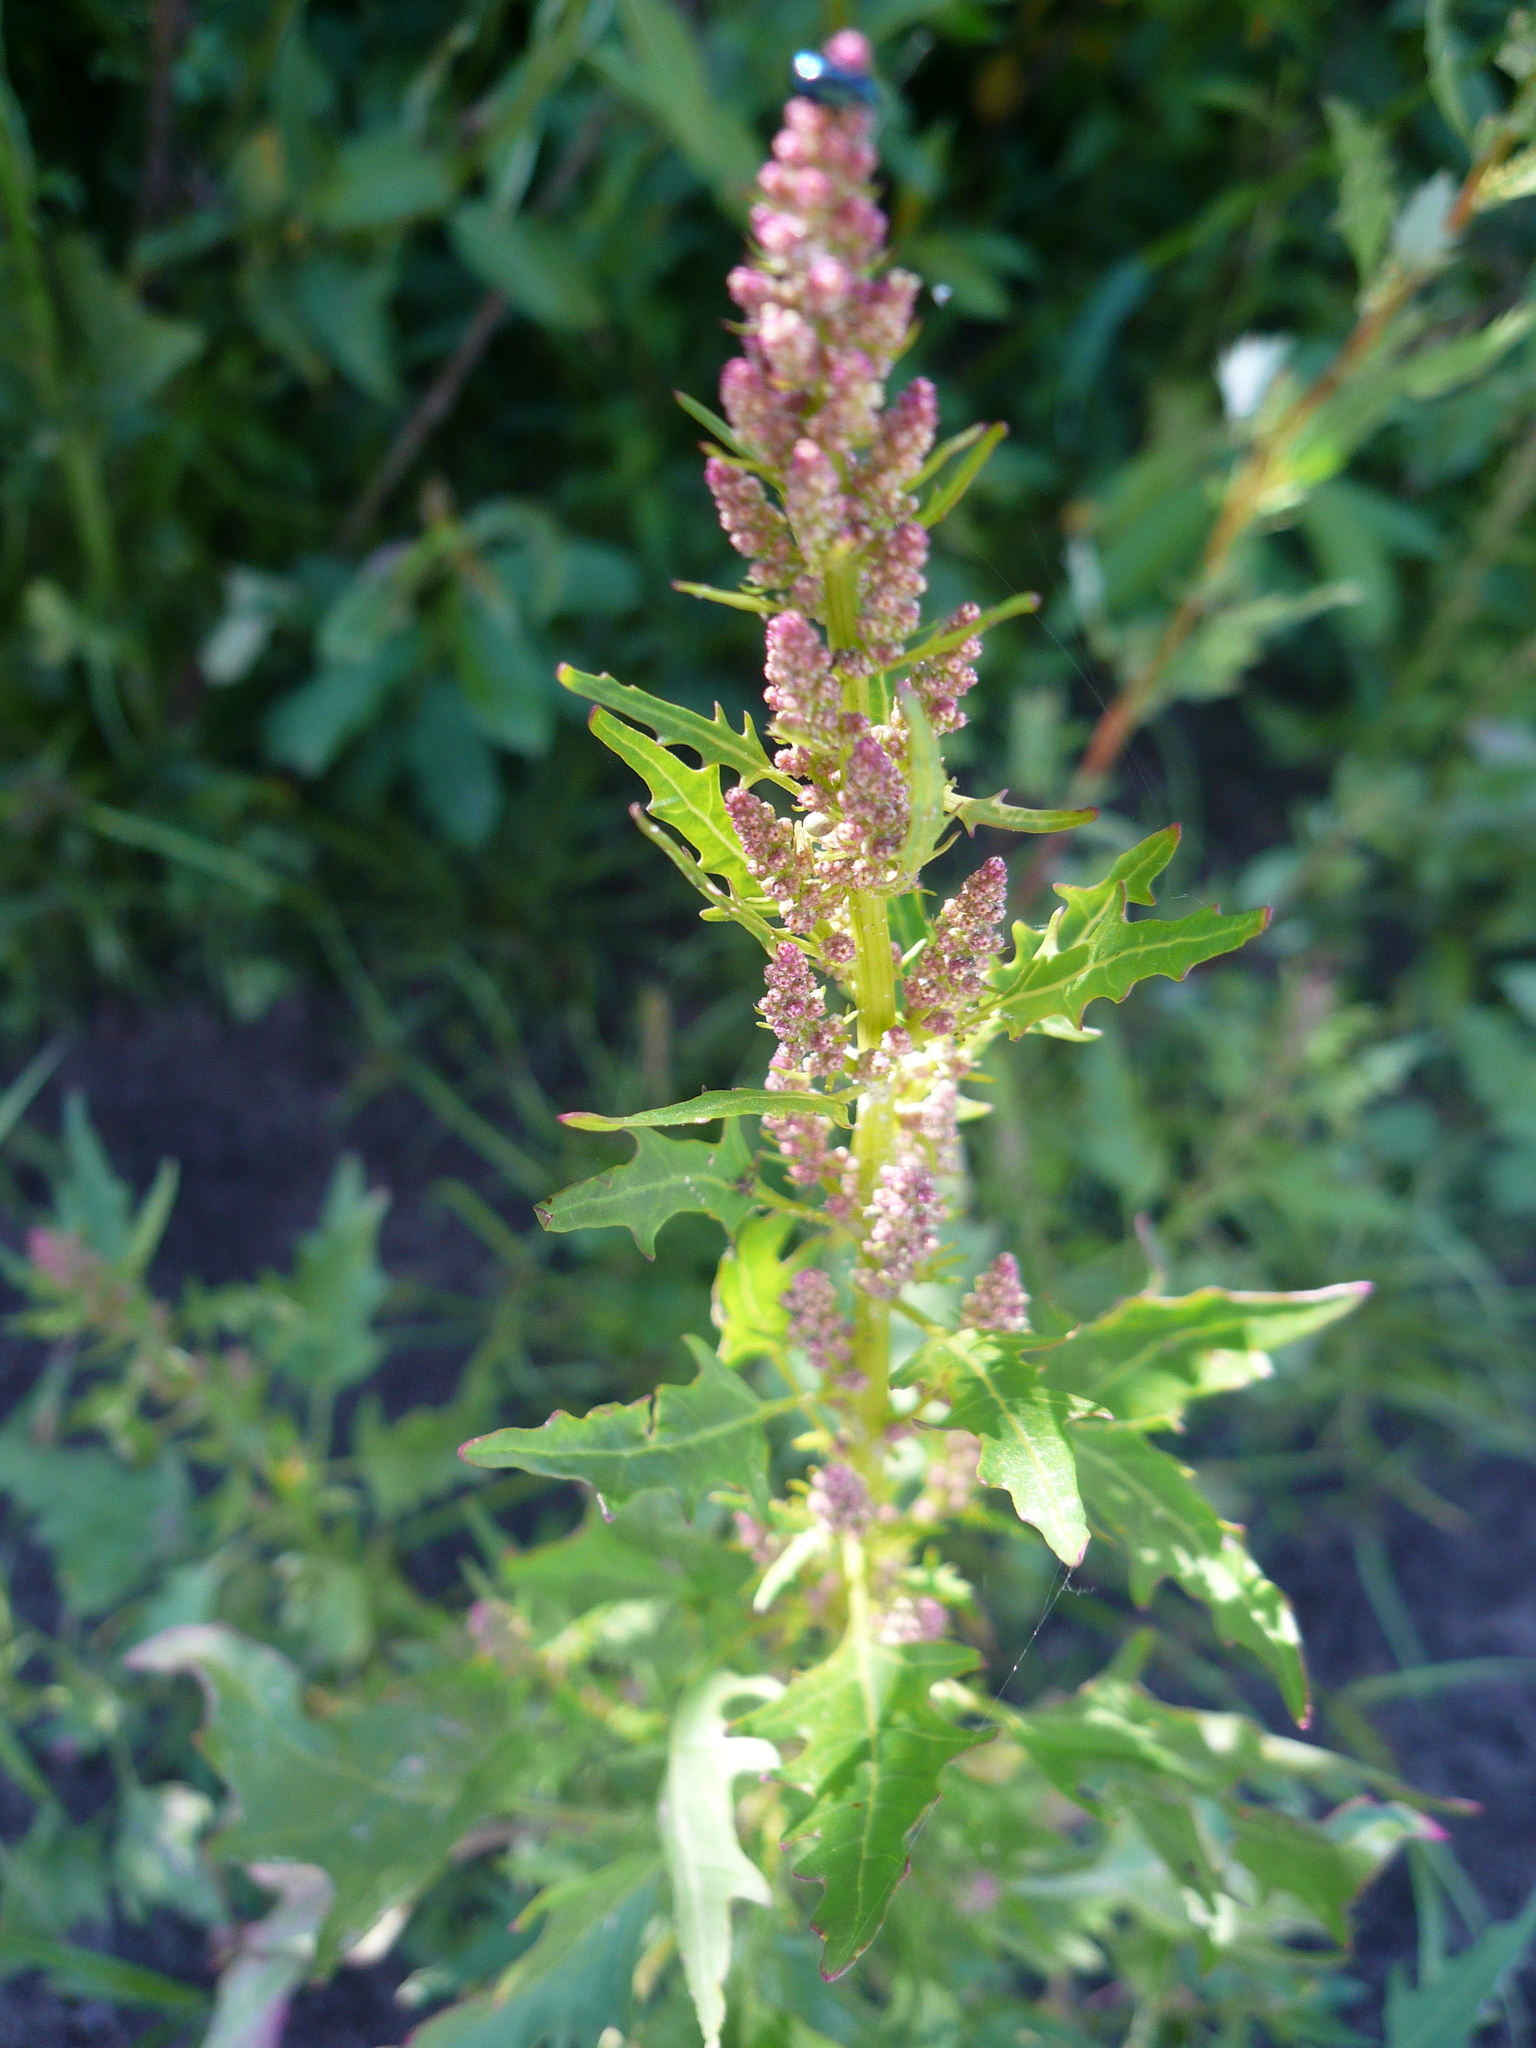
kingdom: Plantae
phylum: Tracheophyta
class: Magnoliopsida
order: Caryophyllales
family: Amaranthaceae
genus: Oxybasis
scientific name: Oxybasis rubra
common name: Red goosefoot
